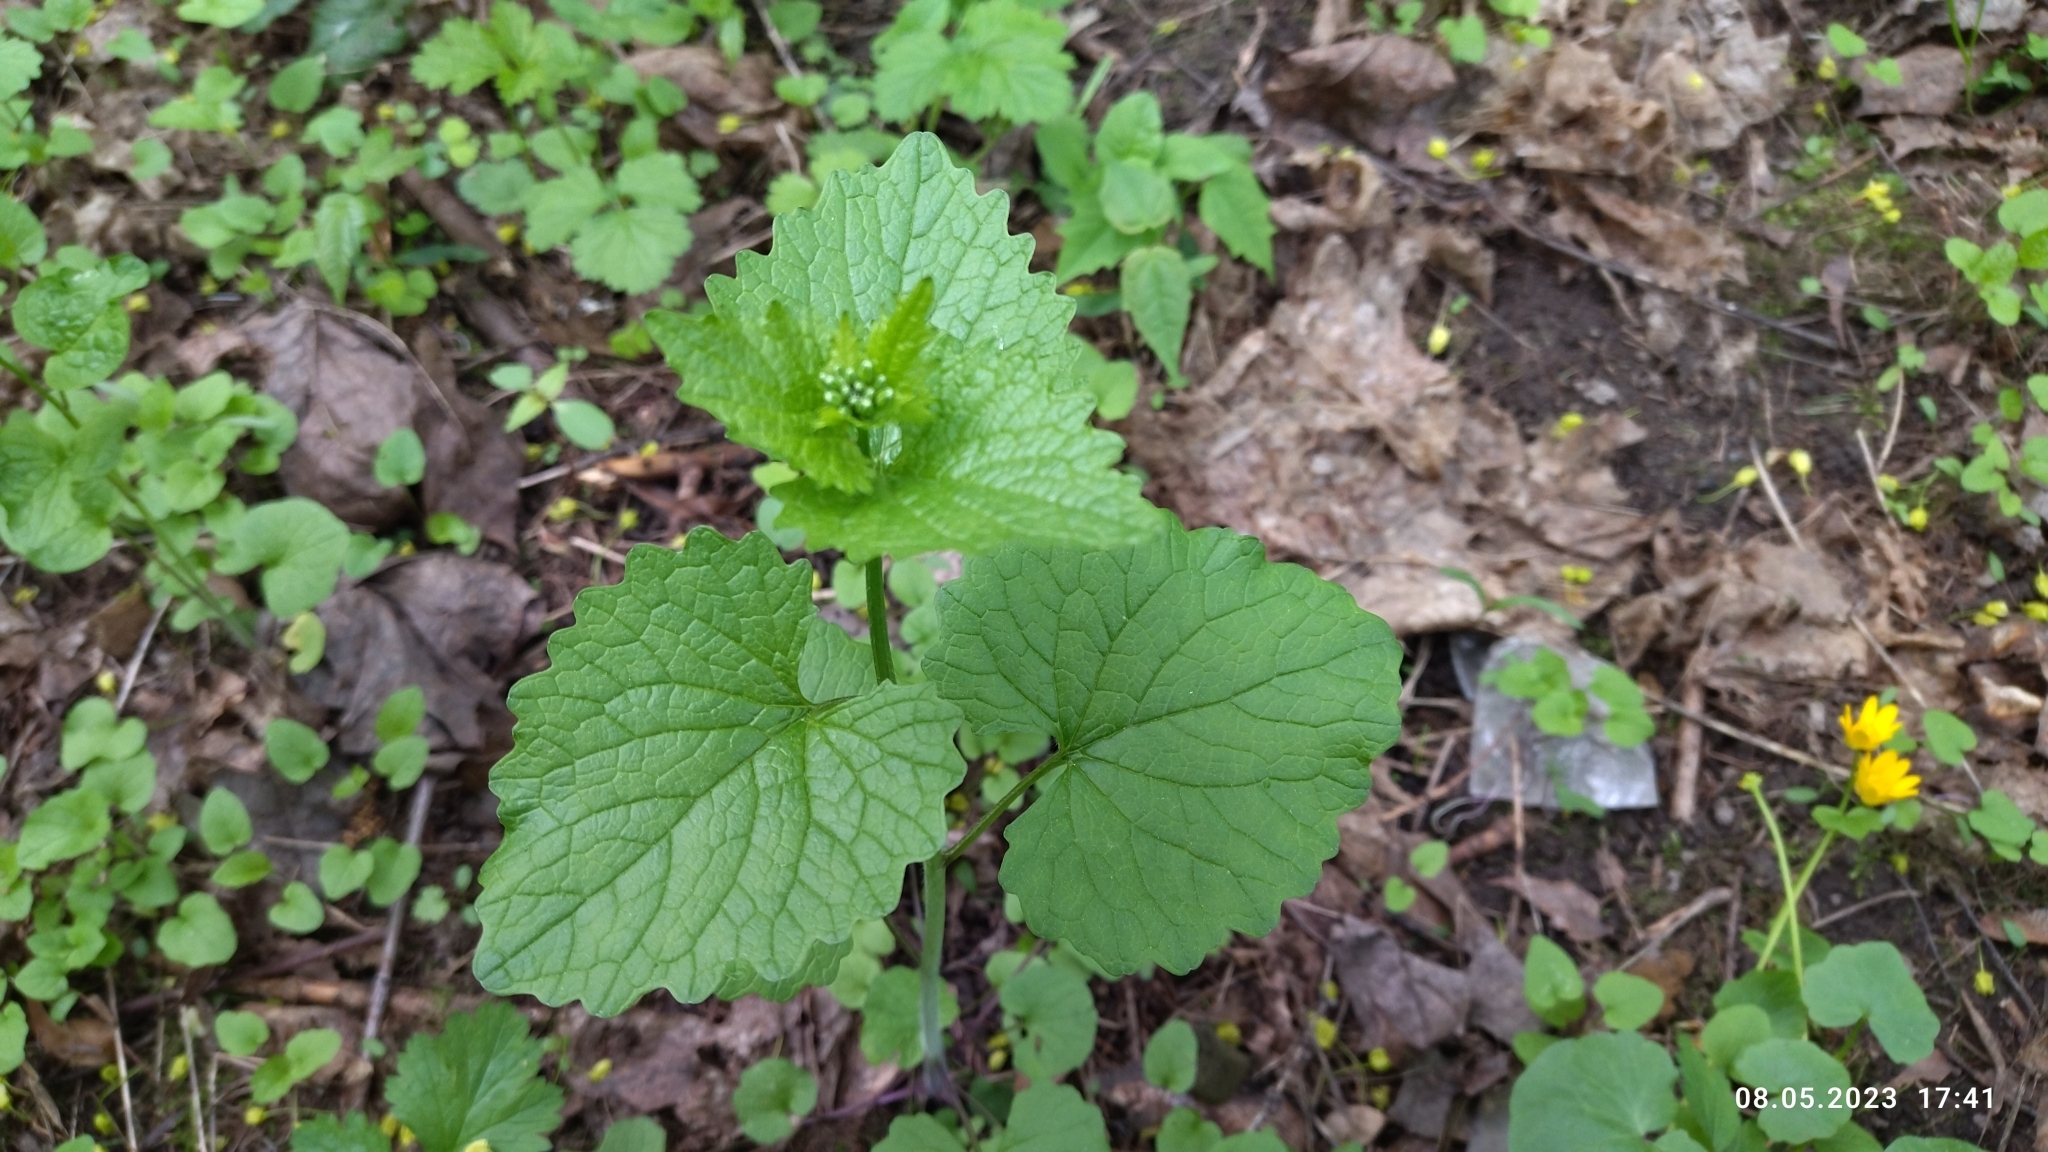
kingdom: Plantae
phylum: Tracheophyta
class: Magnoliopsida
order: Brassicales
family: Brassicaceae
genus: Alliaria
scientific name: Alliaria petiolata
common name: Garlic mustard
